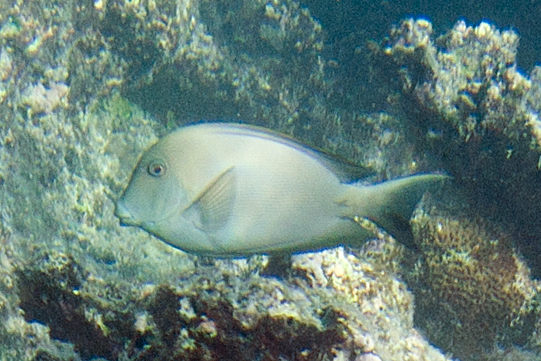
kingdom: Animalia
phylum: Chordata
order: Perciformes
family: Acanthuridae
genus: Ctenochaetus
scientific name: Ctenochaetus striatus
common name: Bristle-toothed surgeonfish
